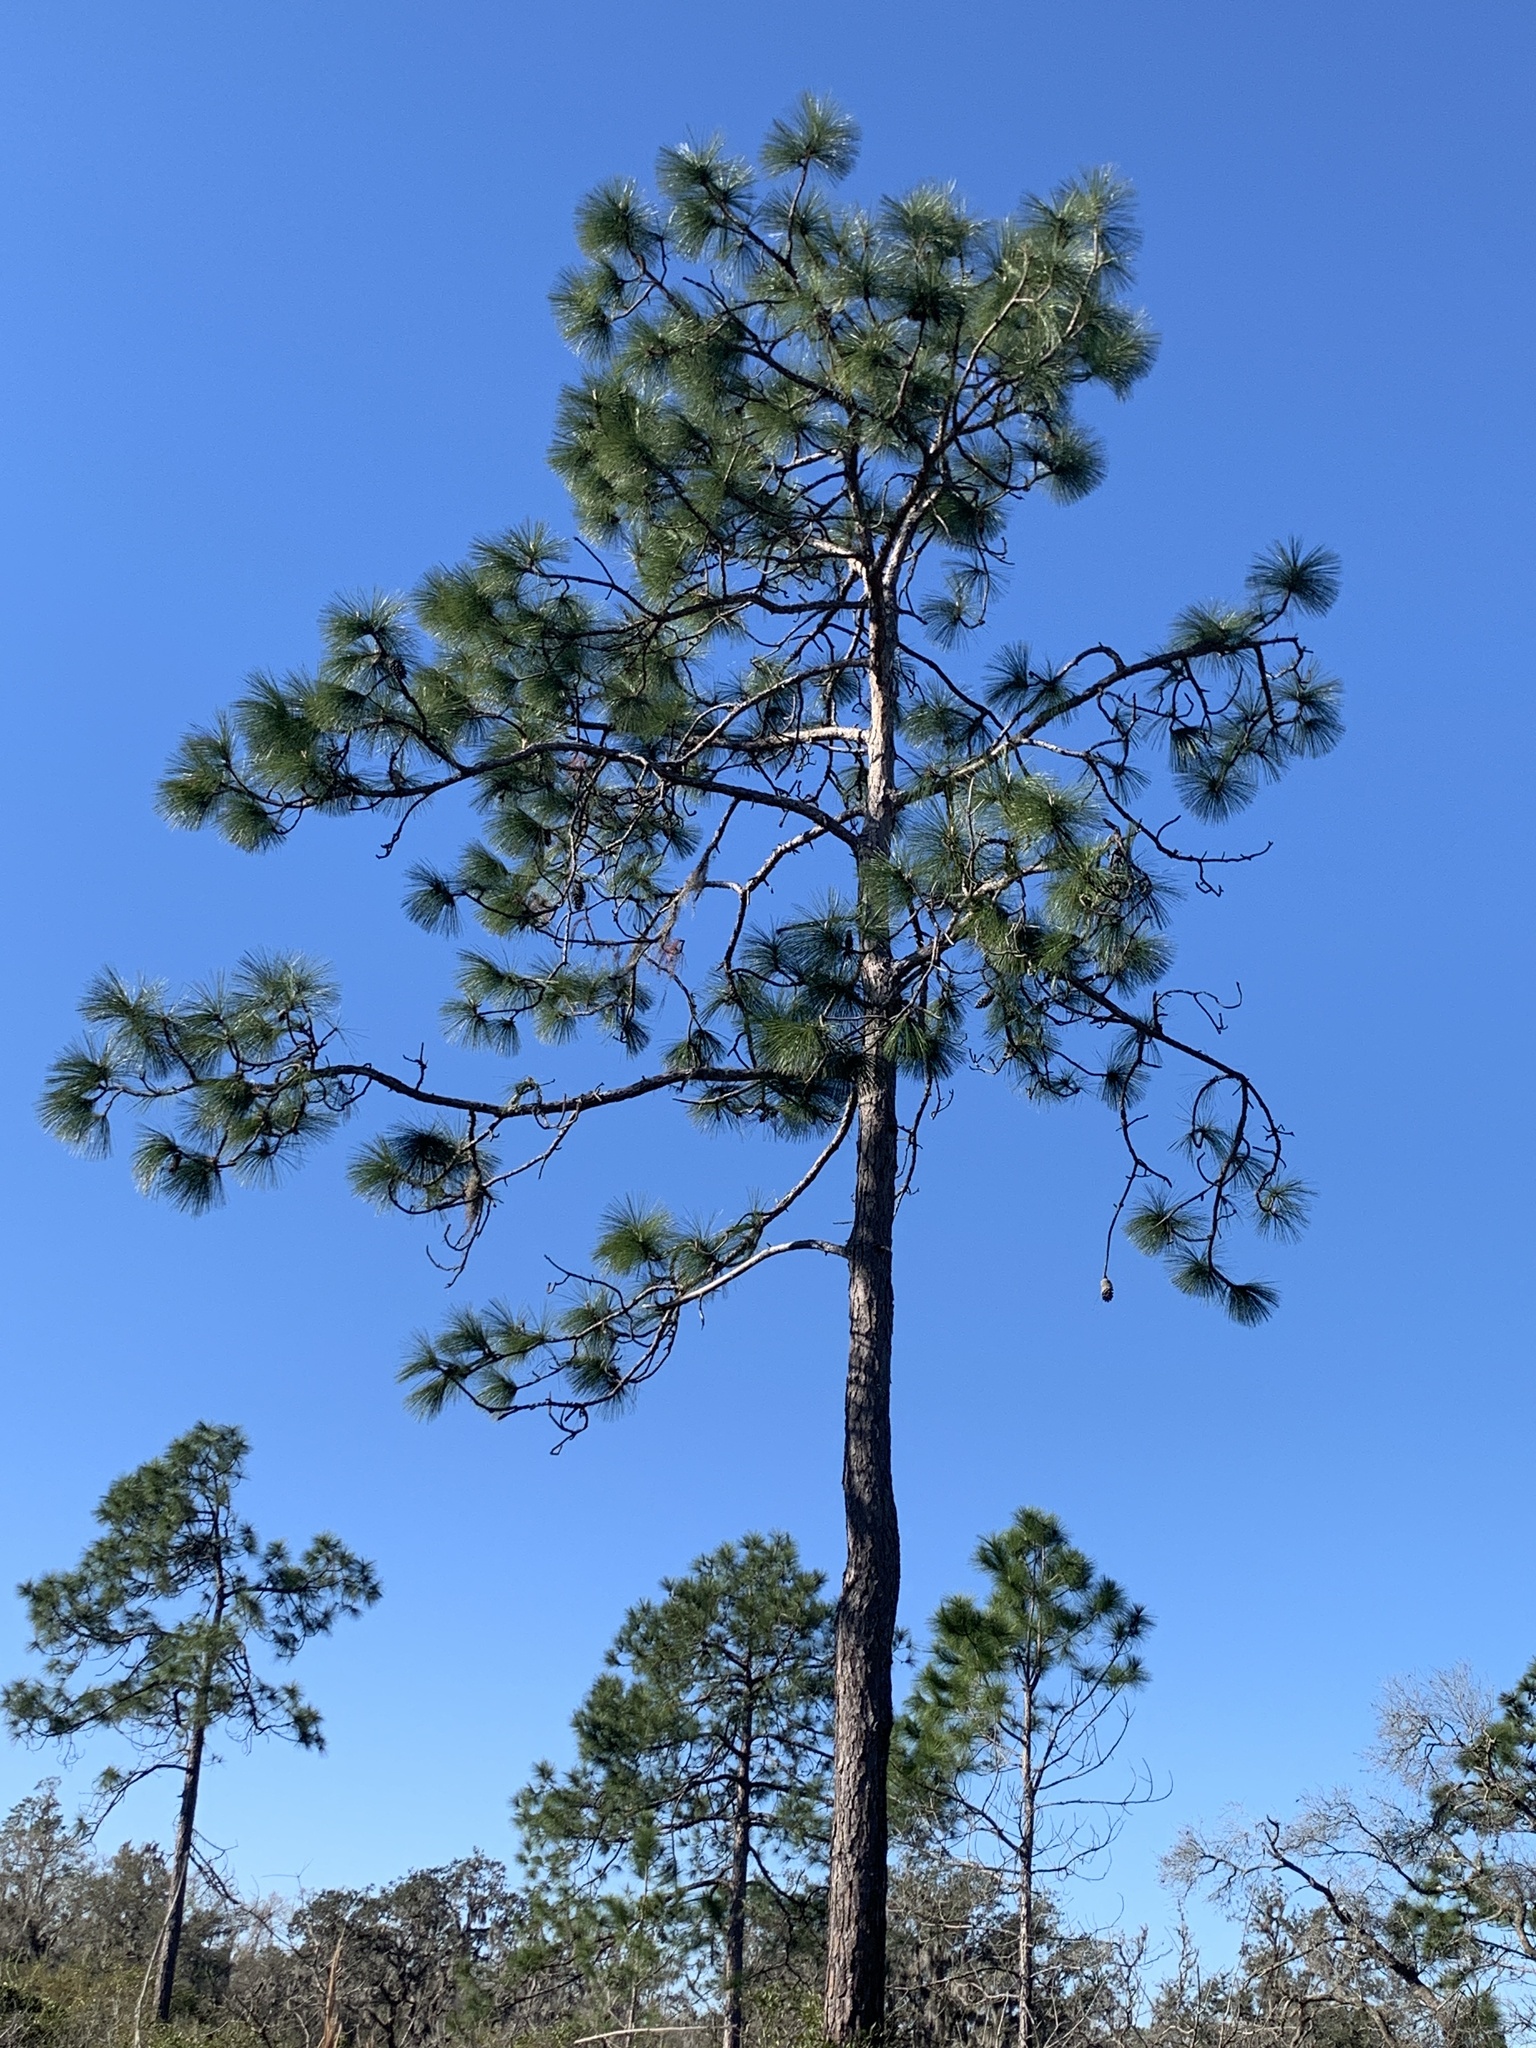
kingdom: Plantae
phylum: Tracheophyta
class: Pinopsida
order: Pinales
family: Pinaceae
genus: Pinus
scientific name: Pinus palustris
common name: Longleaf pine
